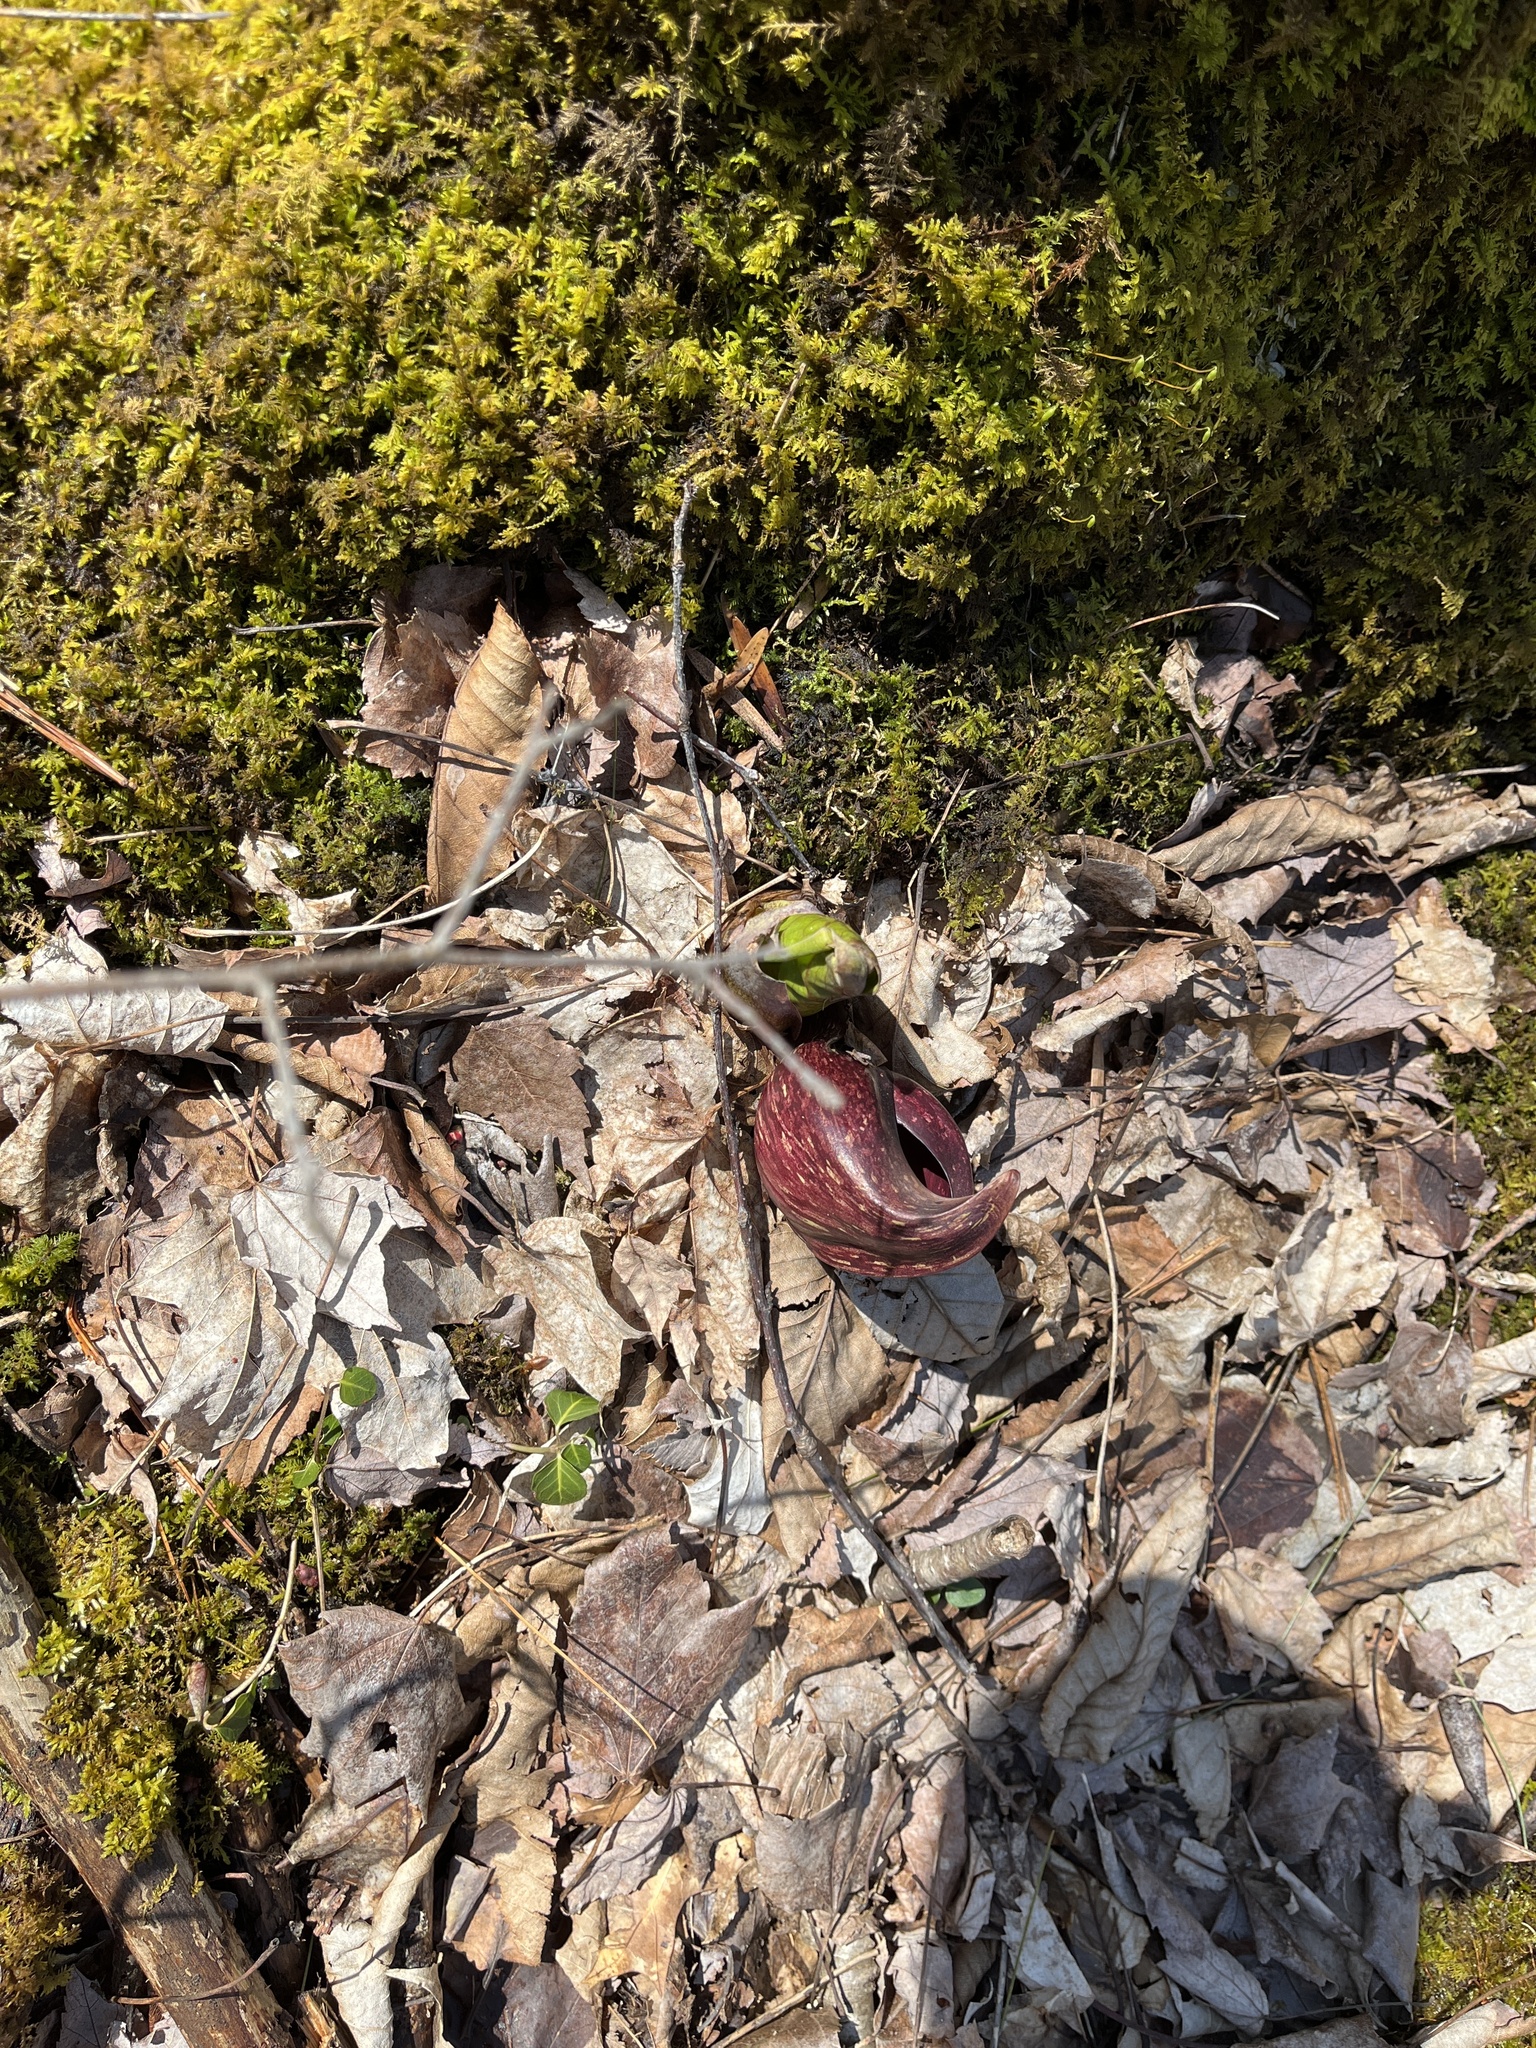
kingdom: Plantae
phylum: Tracheophyta
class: Liliopsida
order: Alismatales
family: Araceae
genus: Symplocarpus
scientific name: Symplocarpus foetidus
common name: Eastern skunk cabbage
